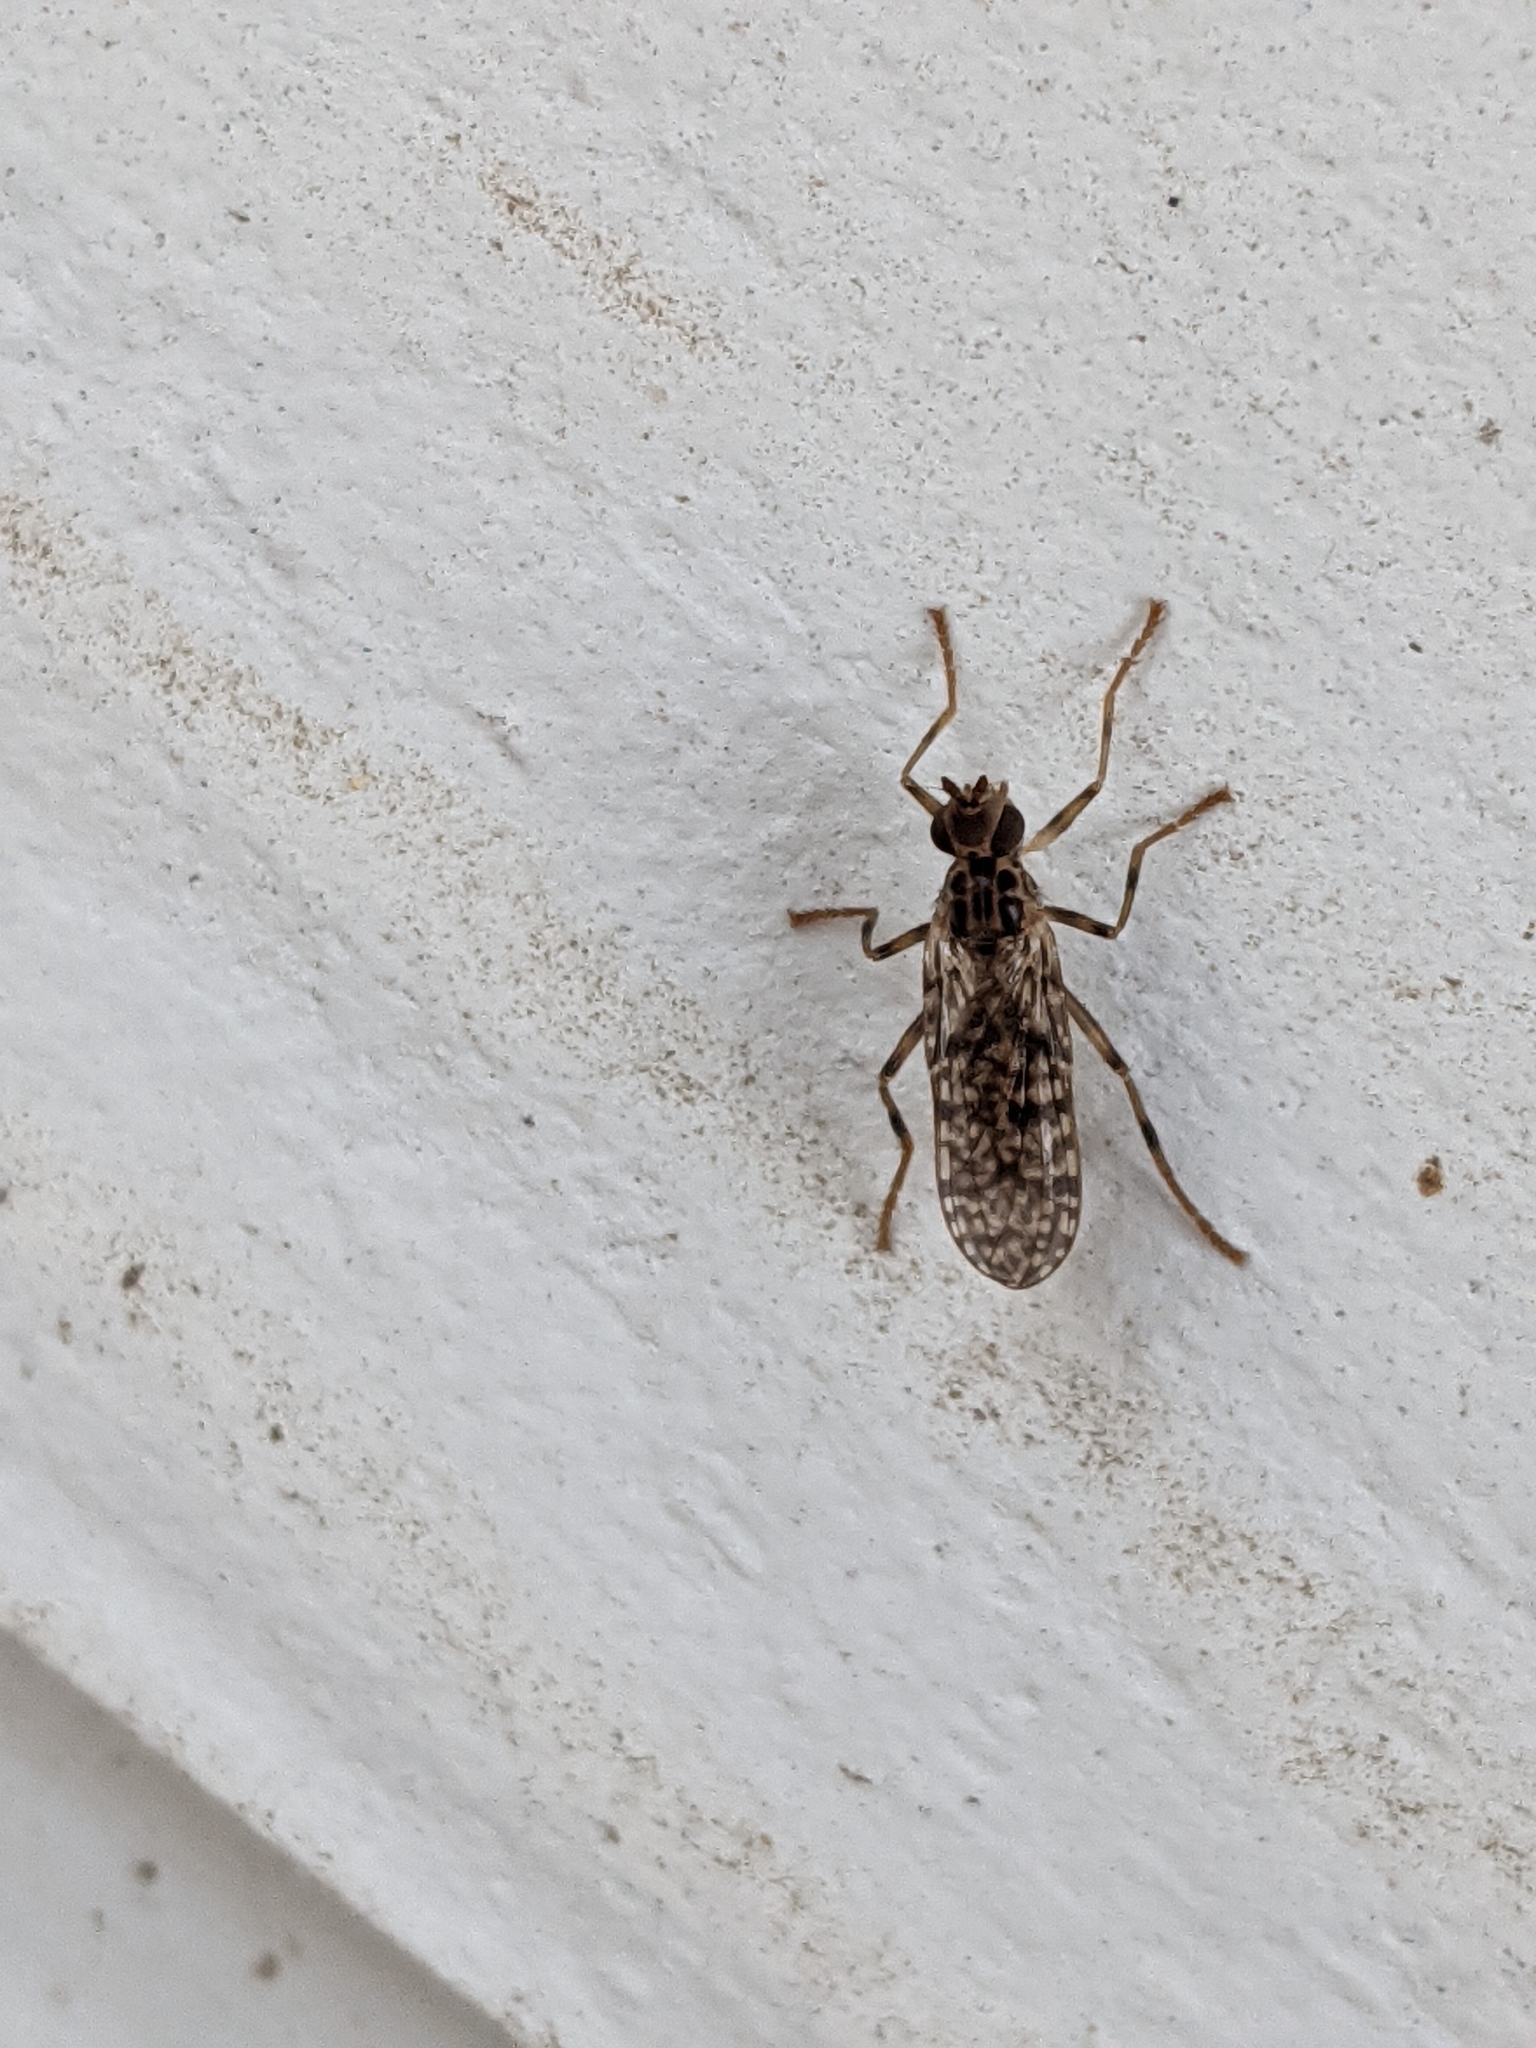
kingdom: Animalia
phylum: Arthropoda
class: Insecta
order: Diptera
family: Pyrgotidae
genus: Boreothrinax
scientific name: Boreothrinax
